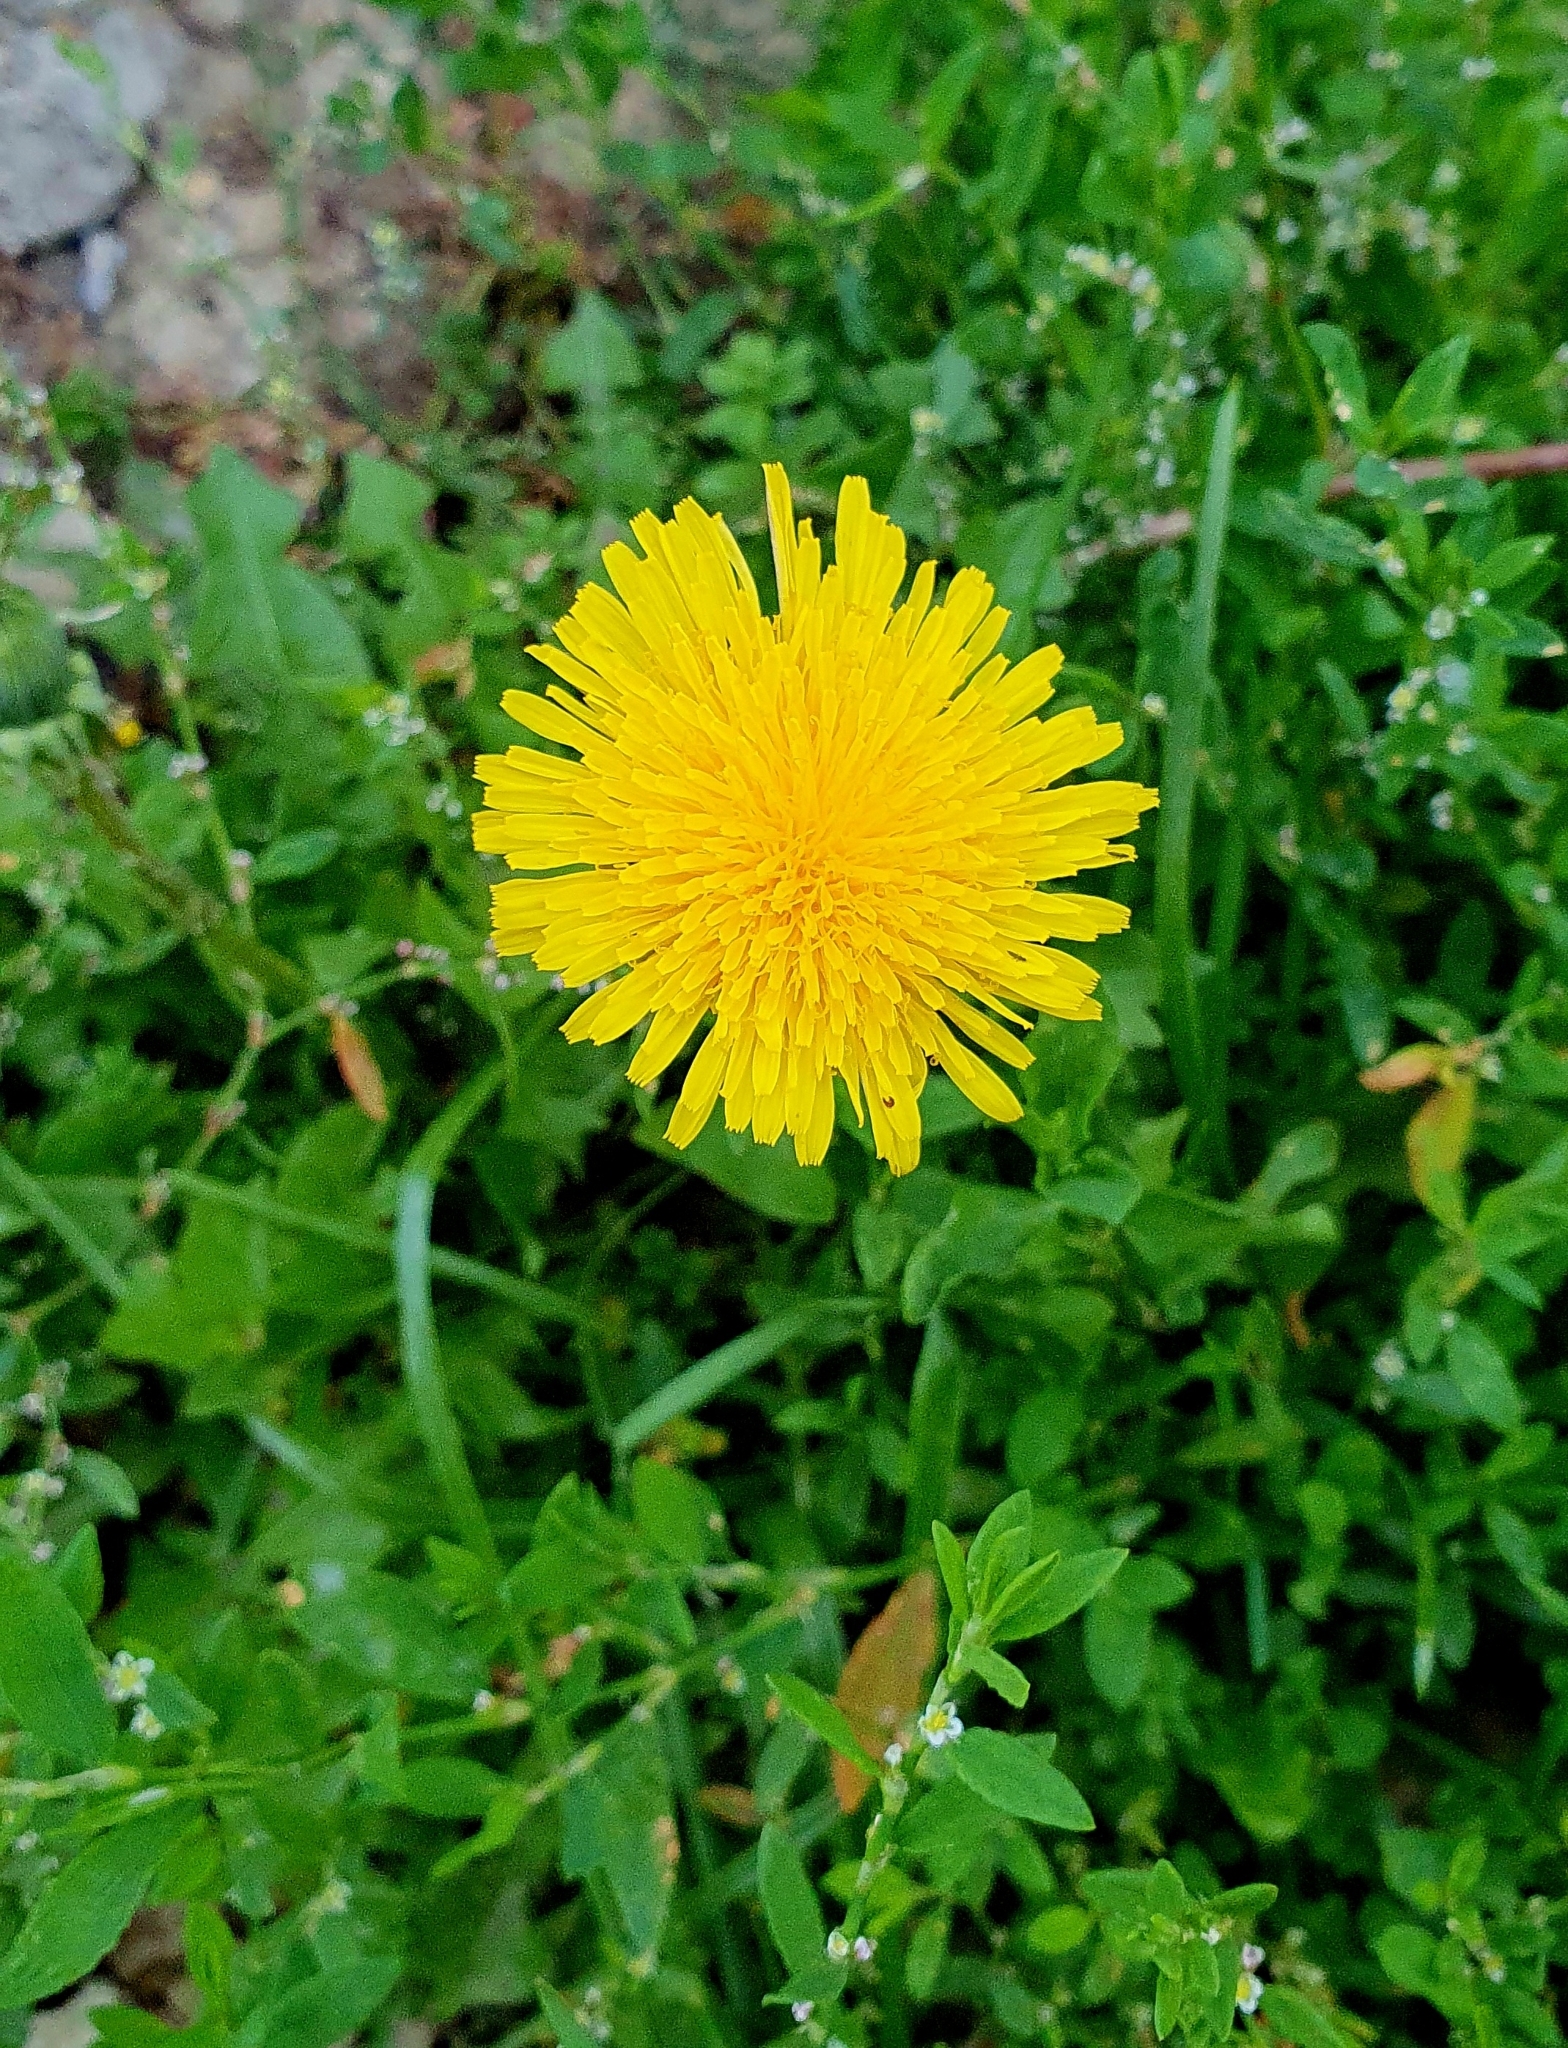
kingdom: Plantae
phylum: Tracheophyta
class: Magnoliopsida
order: Asterales
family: Asteraceae
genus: Taraxacum
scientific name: Taraxacum officinale
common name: Common dandelion
